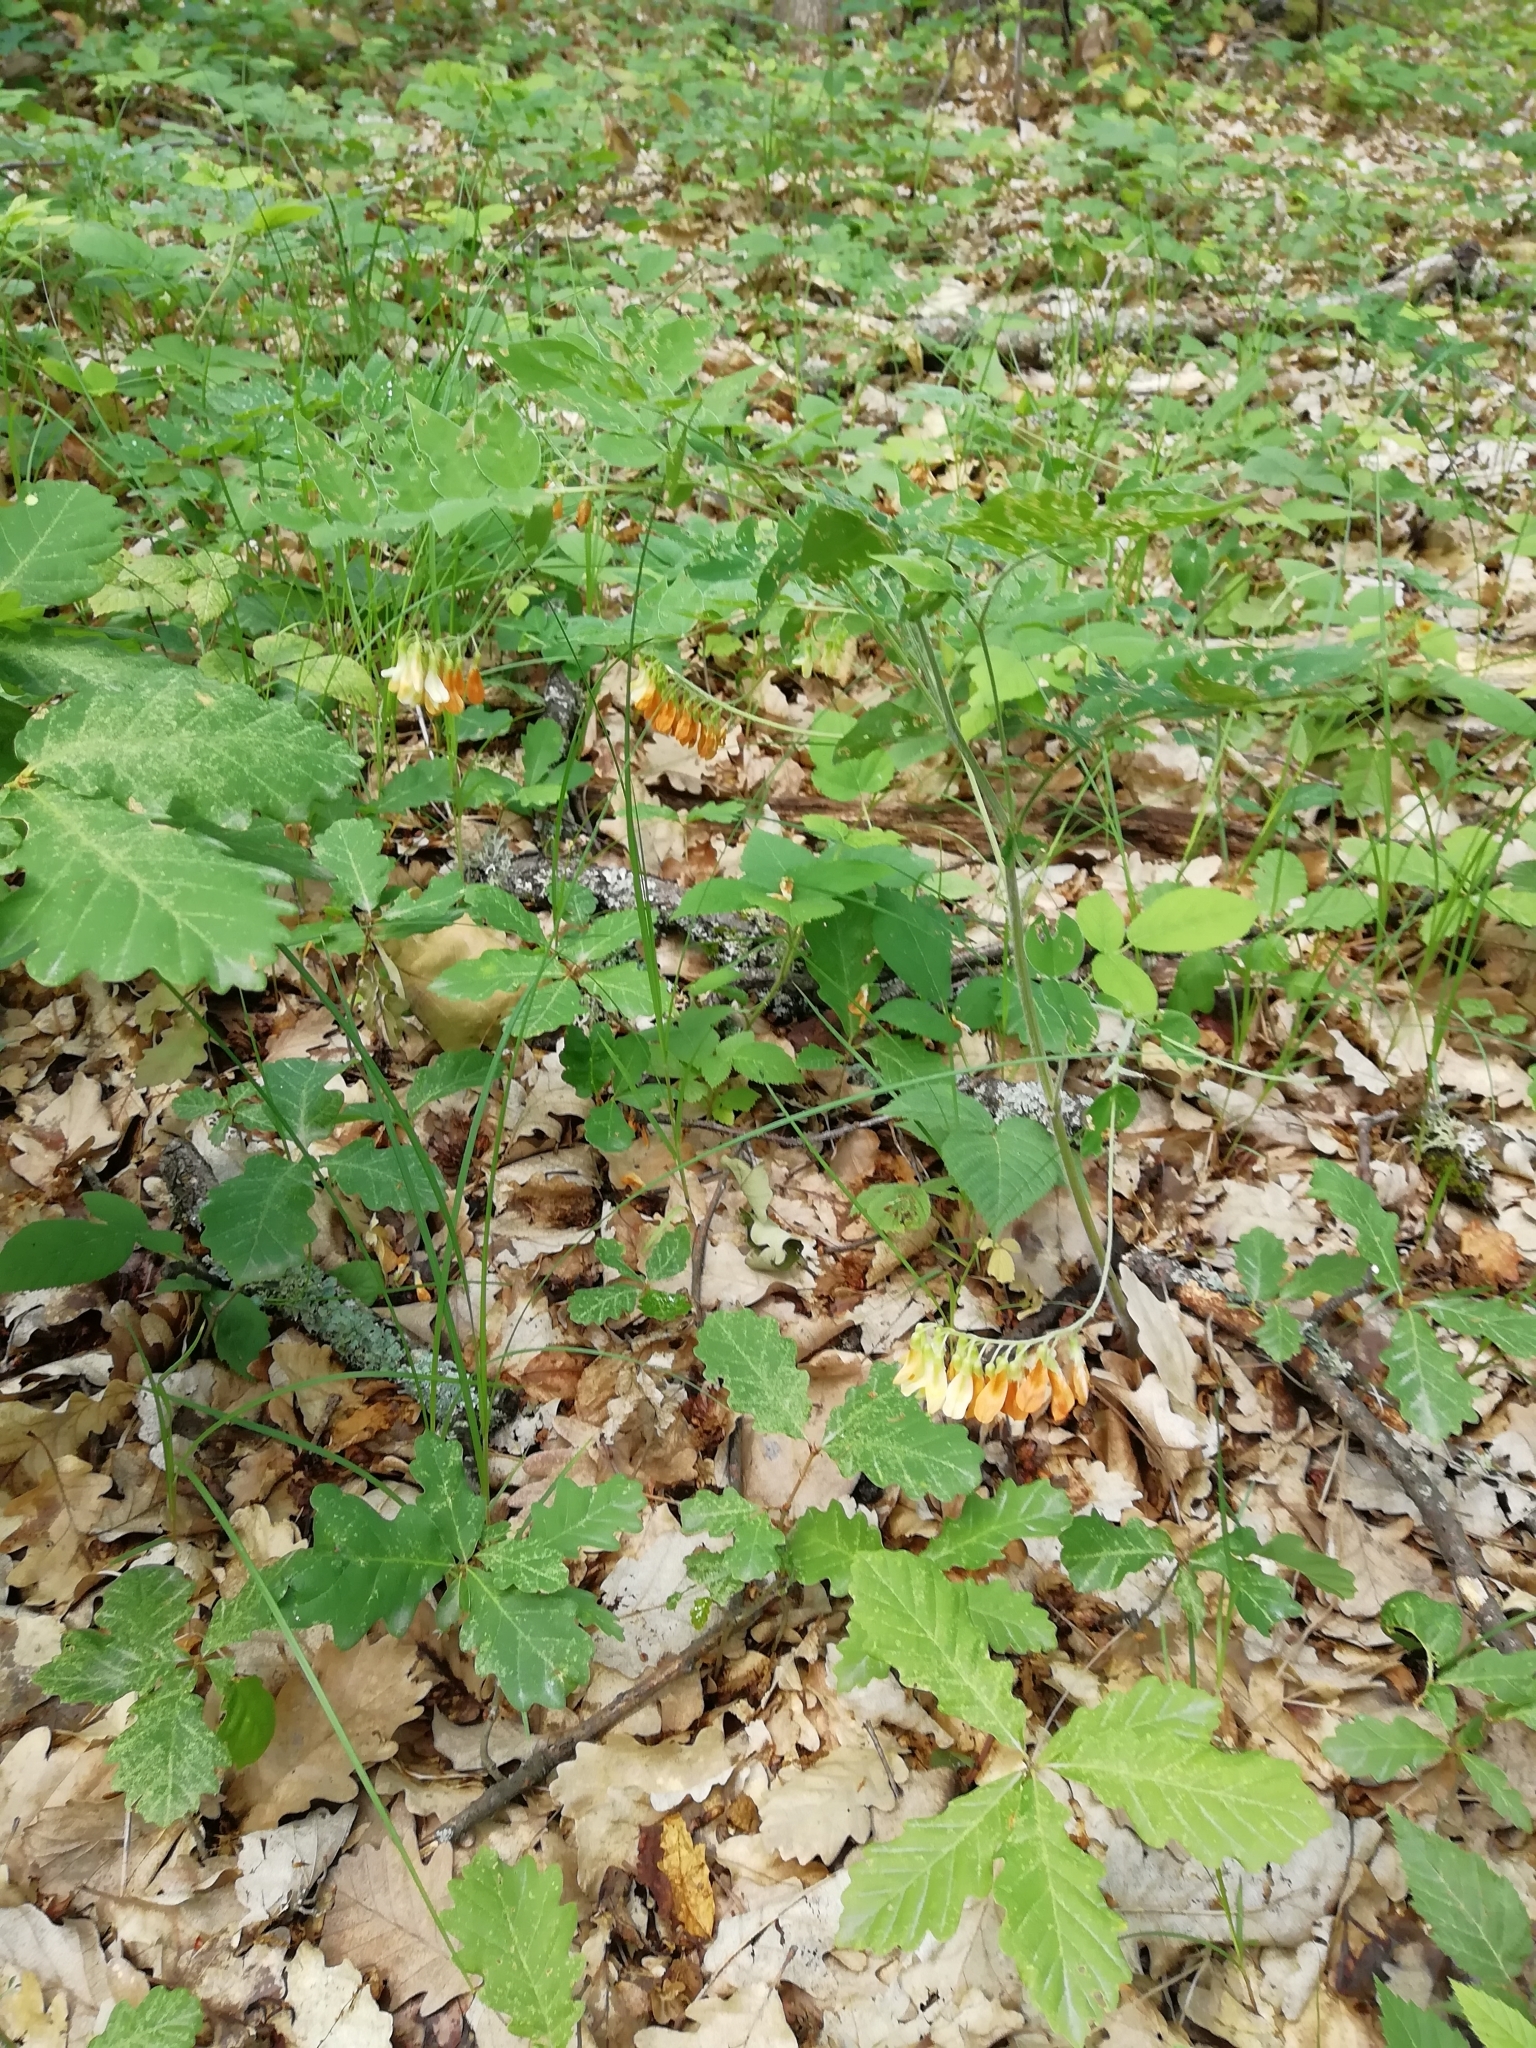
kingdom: Plantae
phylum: Tracheophyta
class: Magnoliopsida
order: Fabales
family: Fabaceae
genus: Vicia
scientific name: Vicia crocea
